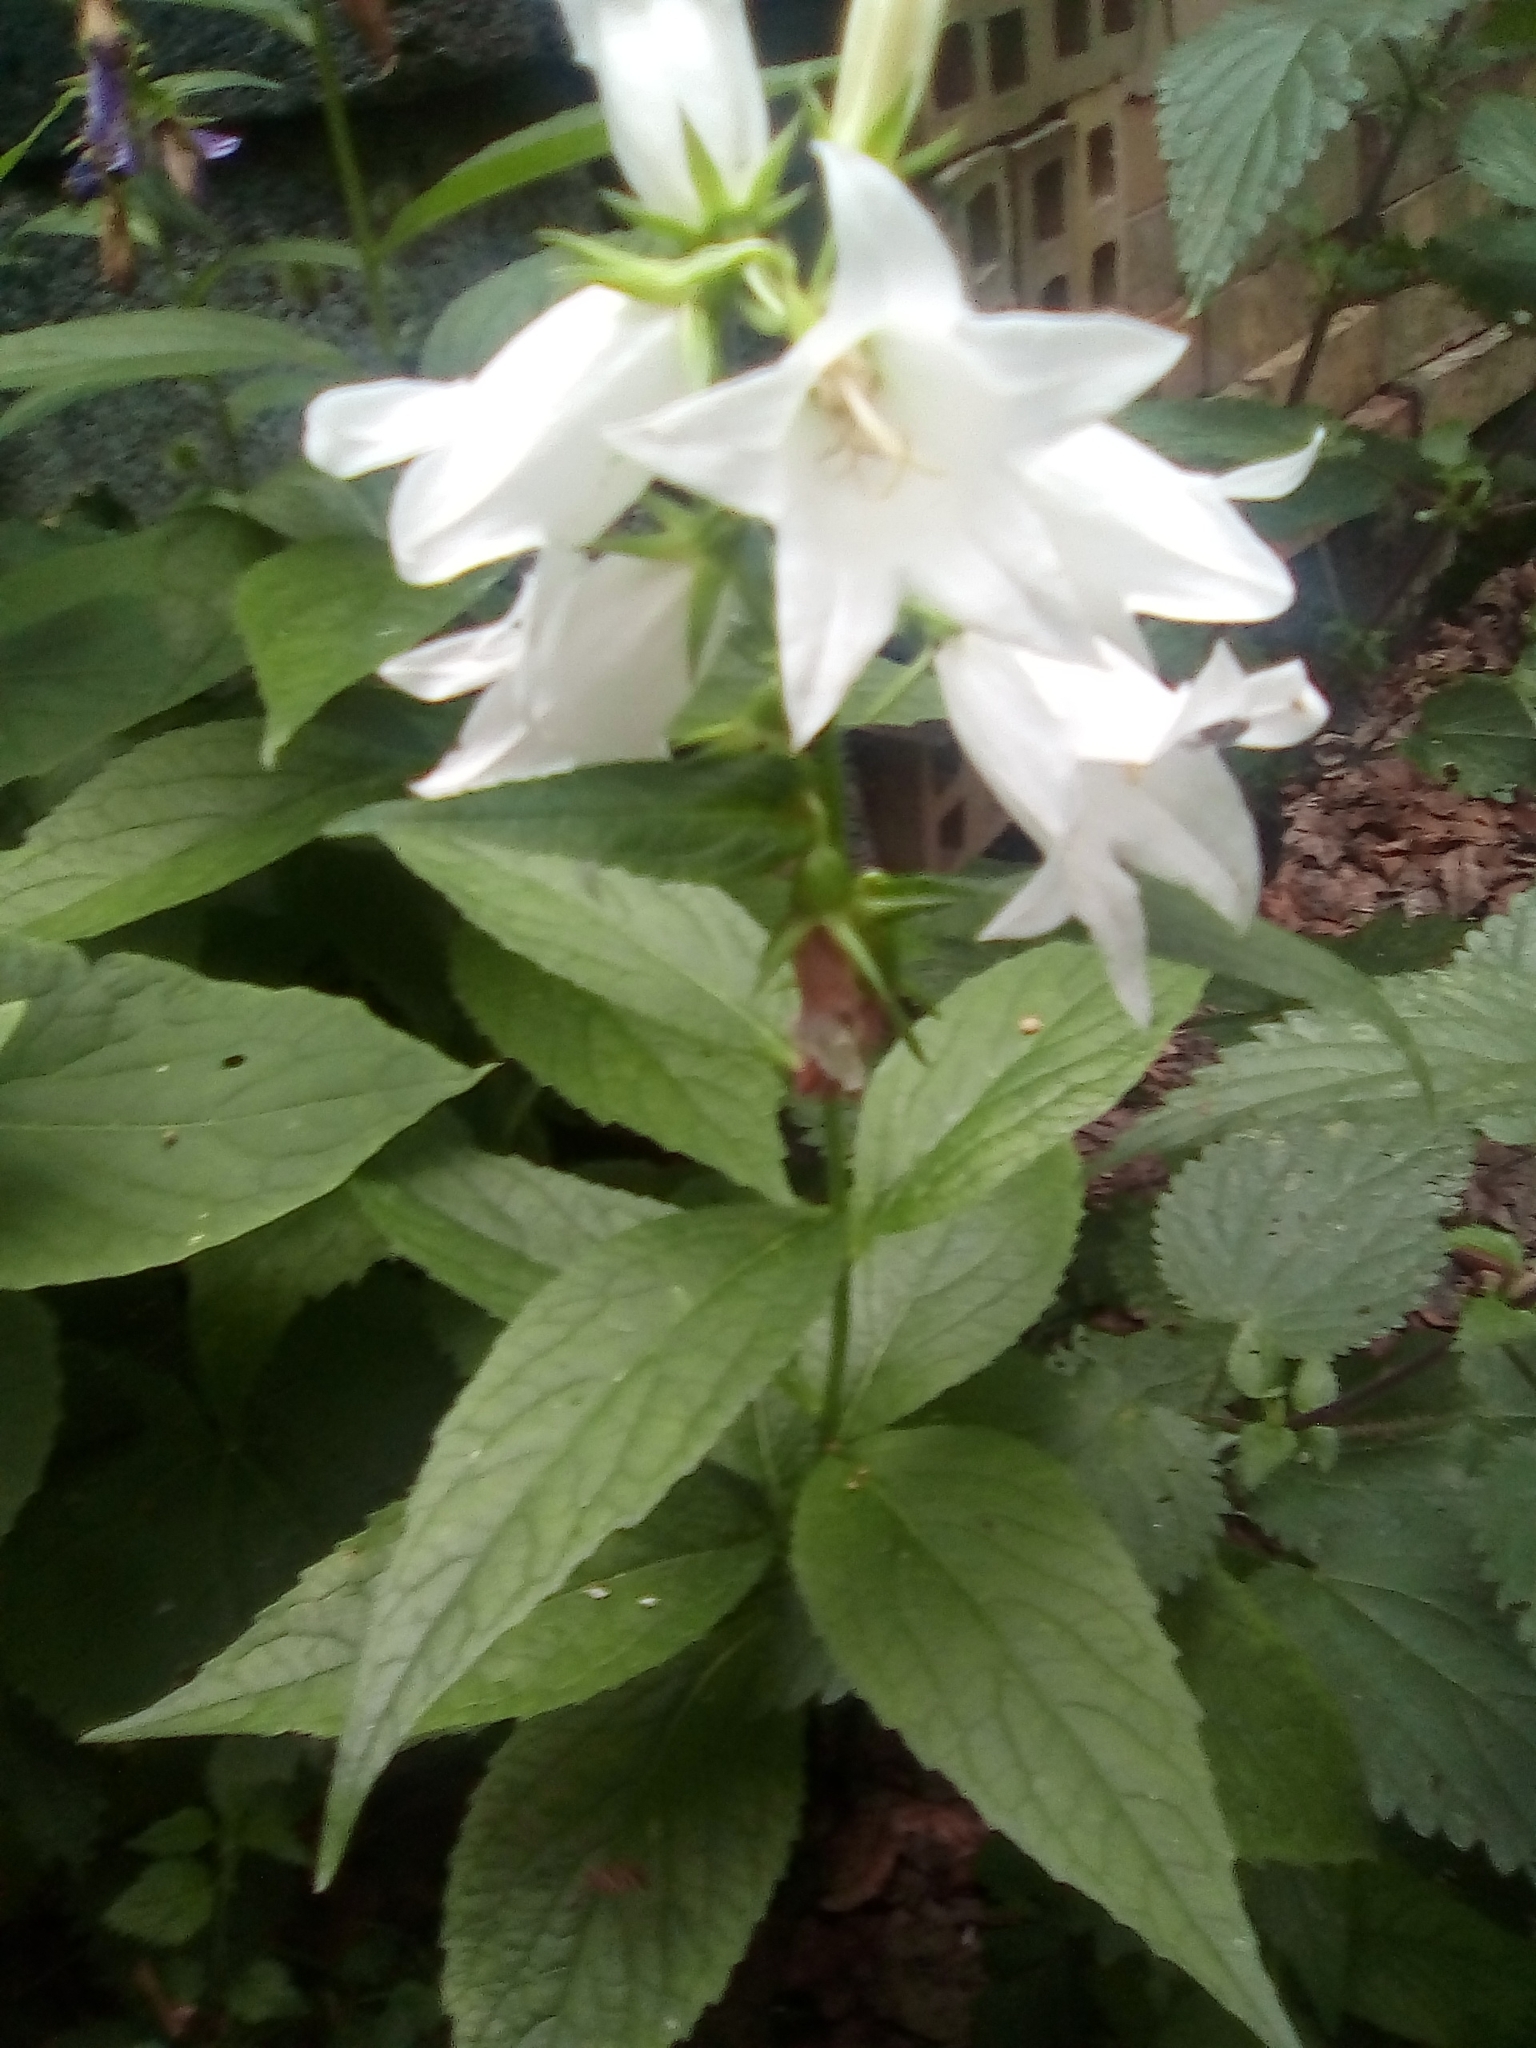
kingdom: Plantae
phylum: Tracheophyta
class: Magnoliopsida
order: Asterales
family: Campanulaceae
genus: Campanula
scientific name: Campanula latifolia
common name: Giant bellflower
